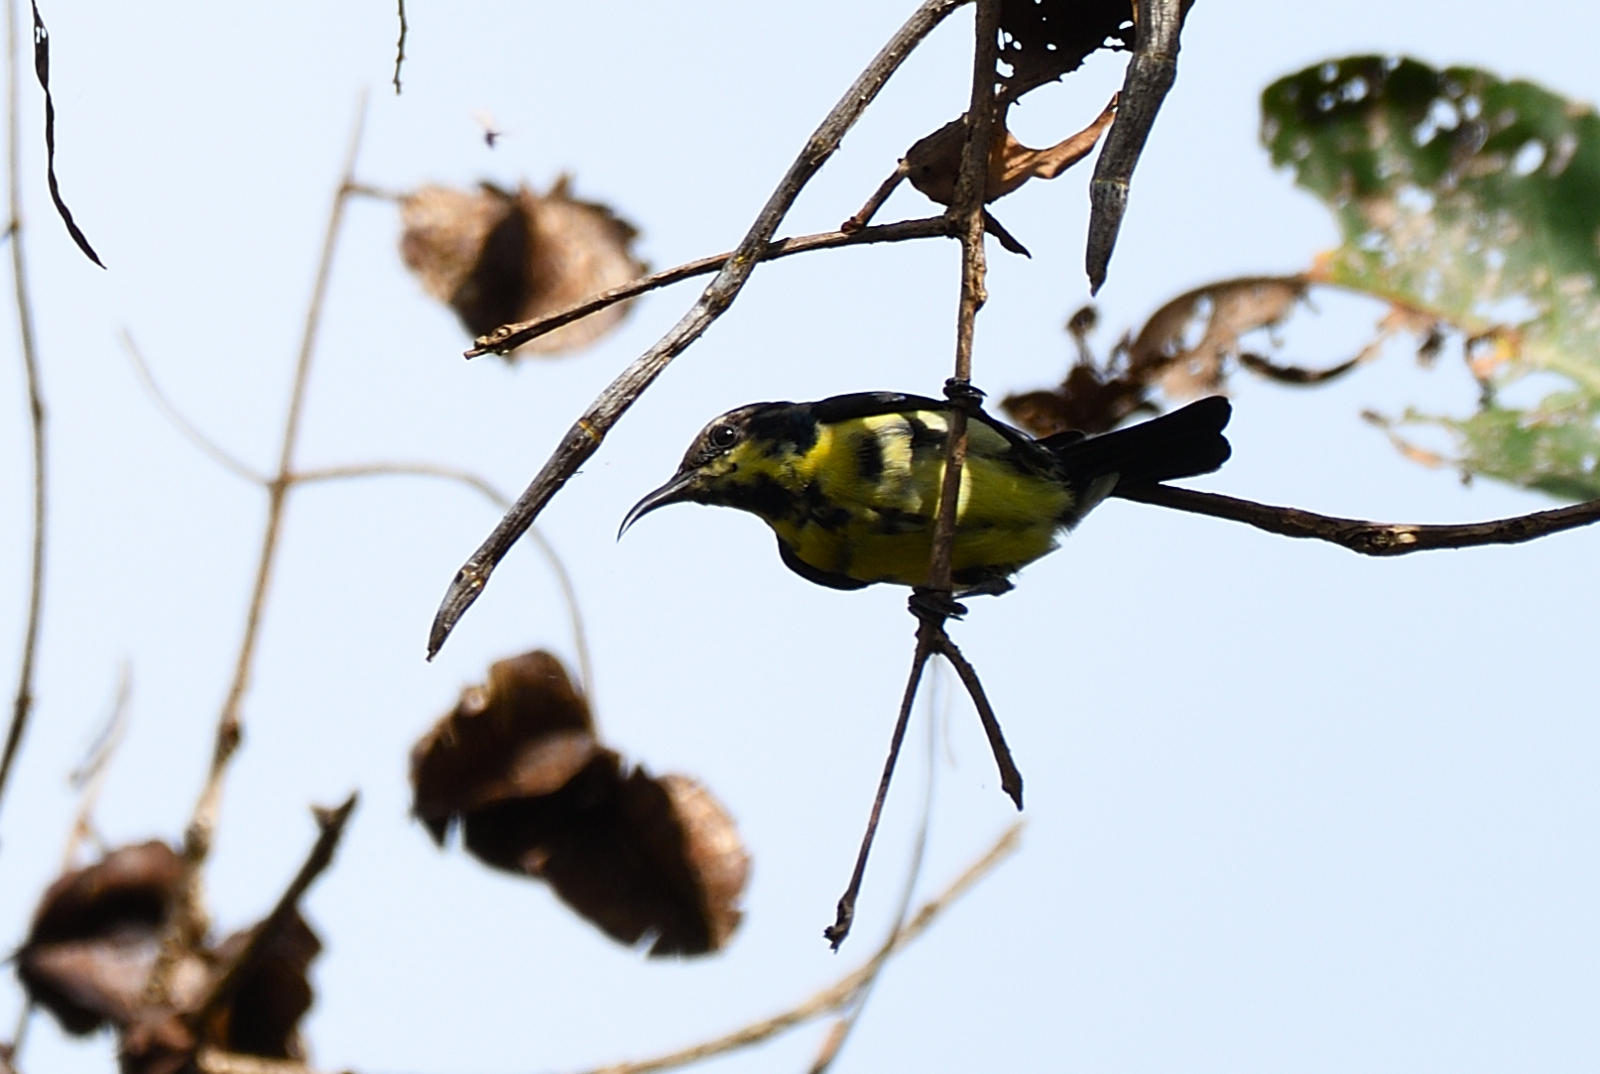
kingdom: Animalia
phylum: Chordata
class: Aves
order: Passeriformes
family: Nectariniidae
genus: Cinnyris
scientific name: Cinnyris asiaticus
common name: Purple sunbird
